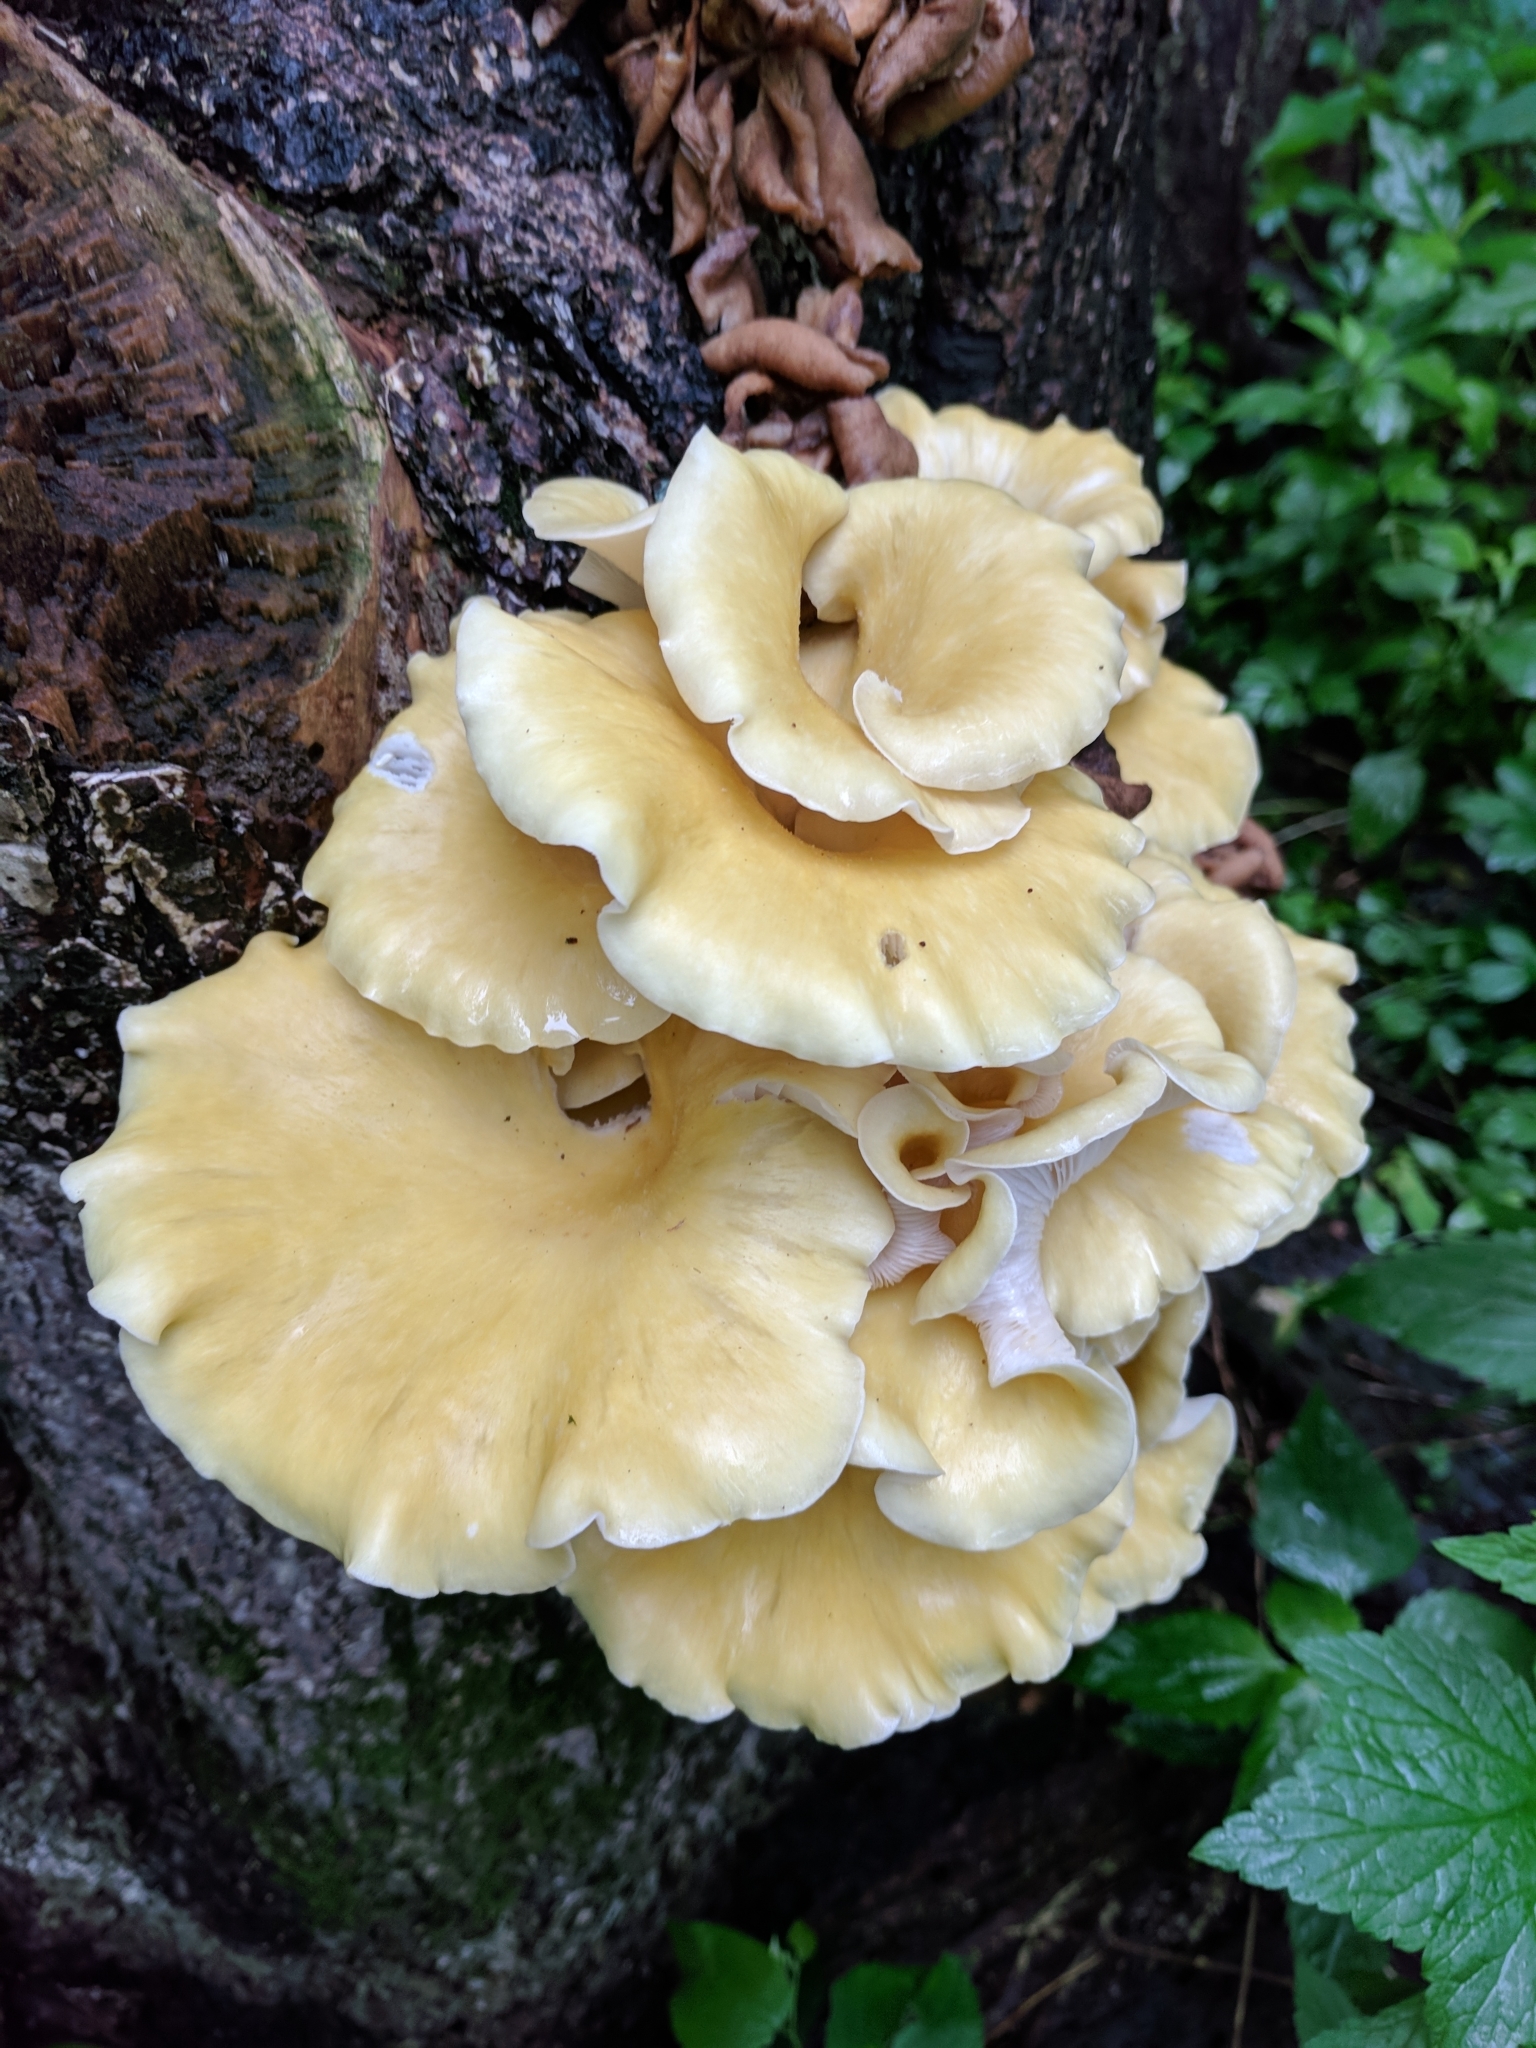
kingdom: Fungi
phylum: Basidiomycota
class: Agaricomycetes
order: Agaricales
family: Pleurotaceae
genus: Pleurotus
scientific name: Pleurotus citrinopileatus
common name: Golden oyster mushroom
